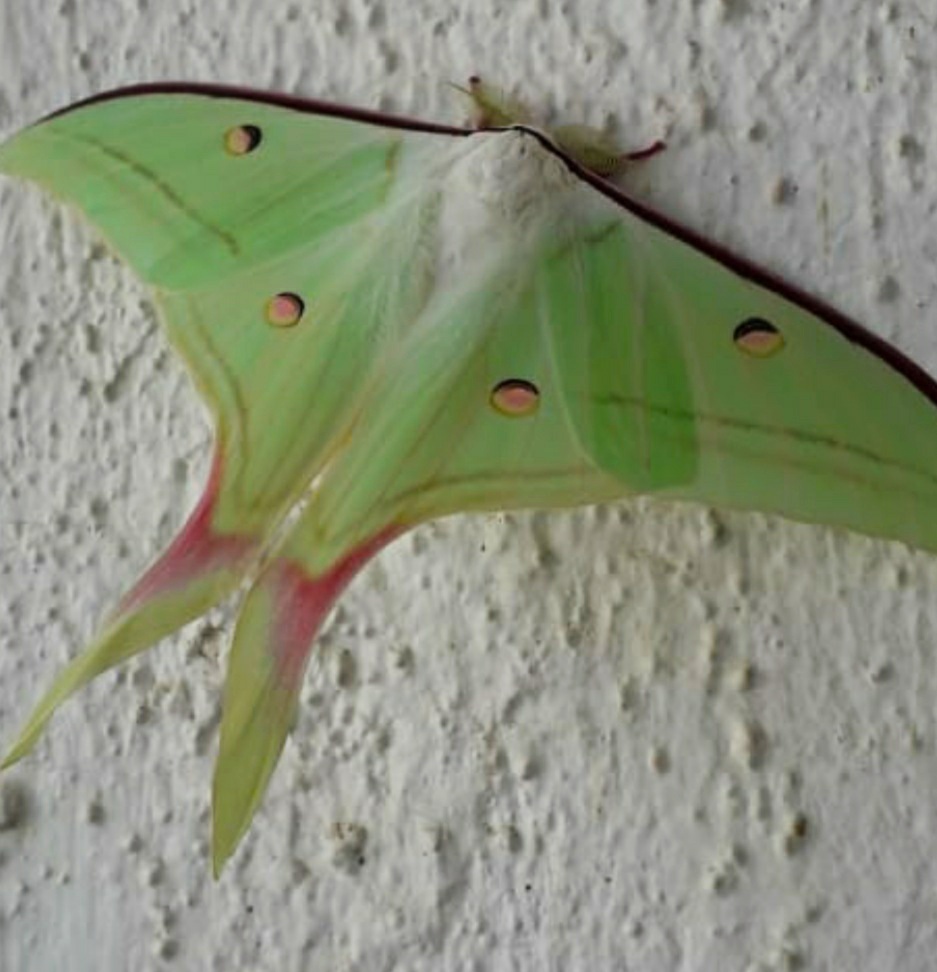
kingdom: Animalia
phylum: Arthropoda
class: Insecta
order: Lepidoptera
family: Saturniidae
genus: Actias
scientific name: Actias selene
